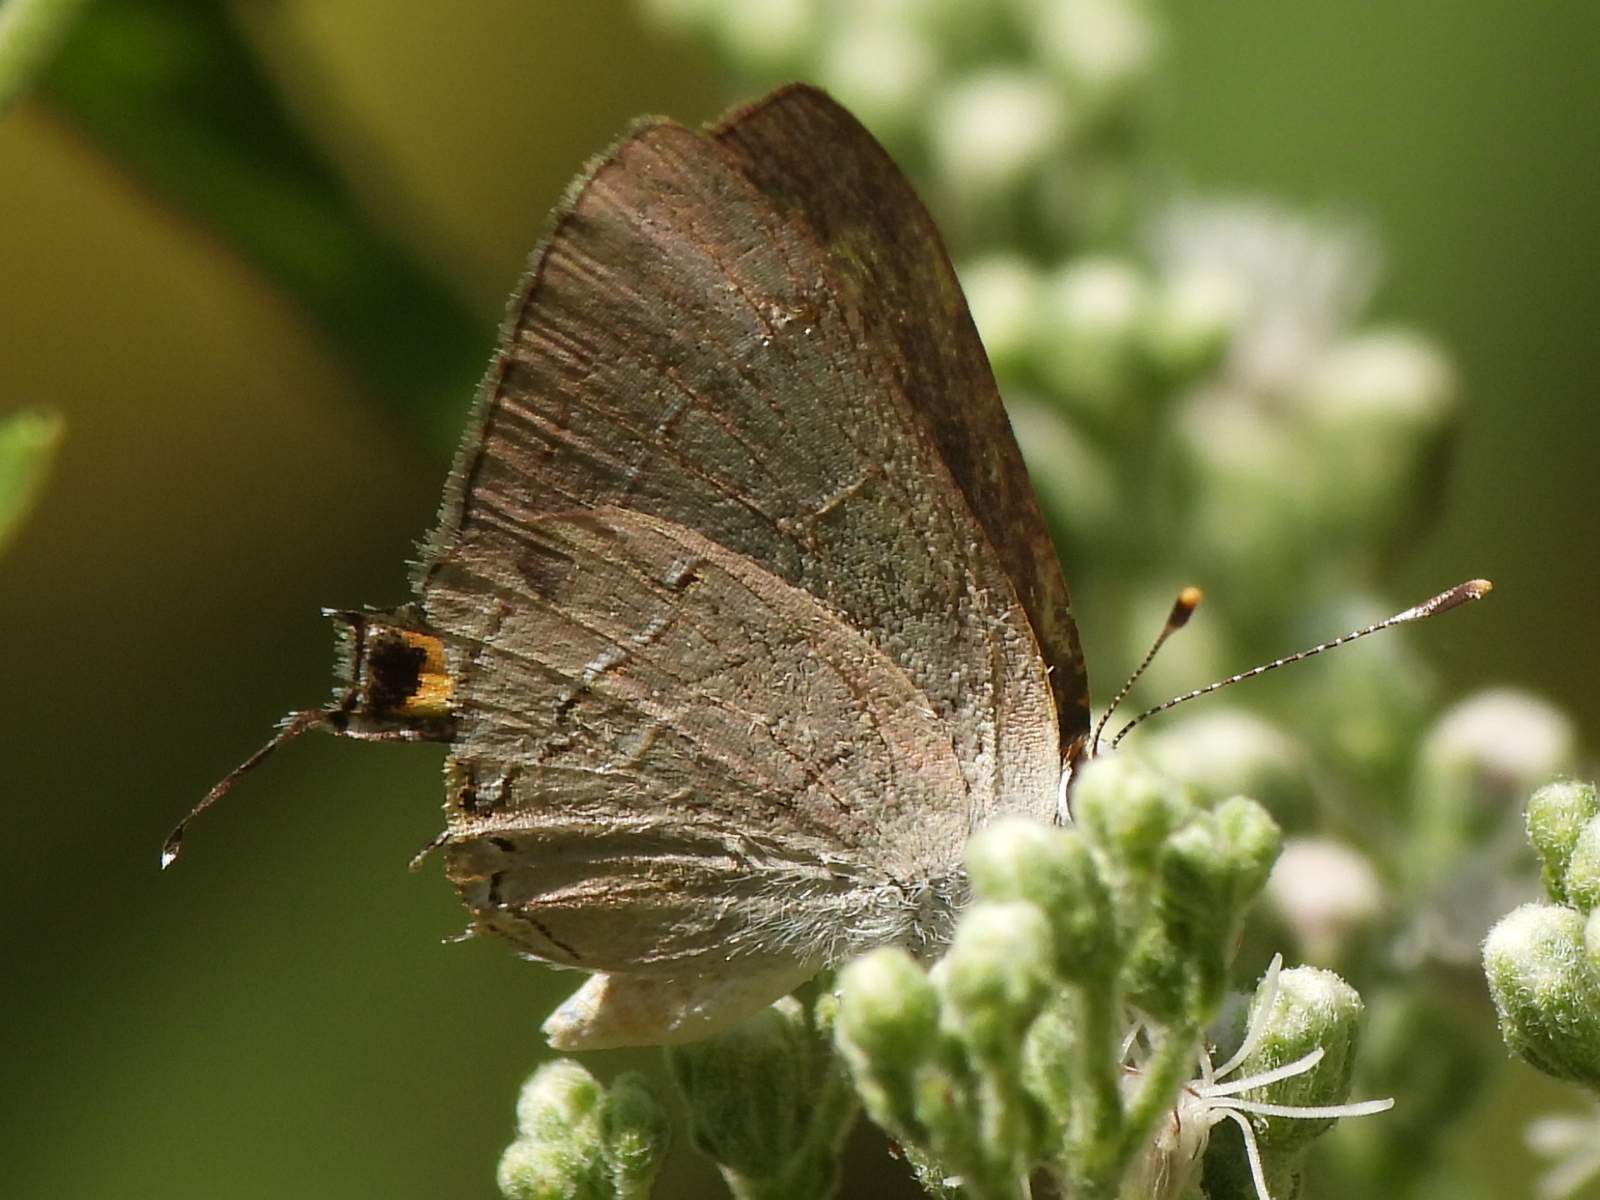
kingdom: Animalia
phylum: Arthropoda
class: Insecta
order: Lepidoptera
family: Lycaenidae
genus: Strymon
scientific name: Strymon melinus
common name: Gray hairstreak
